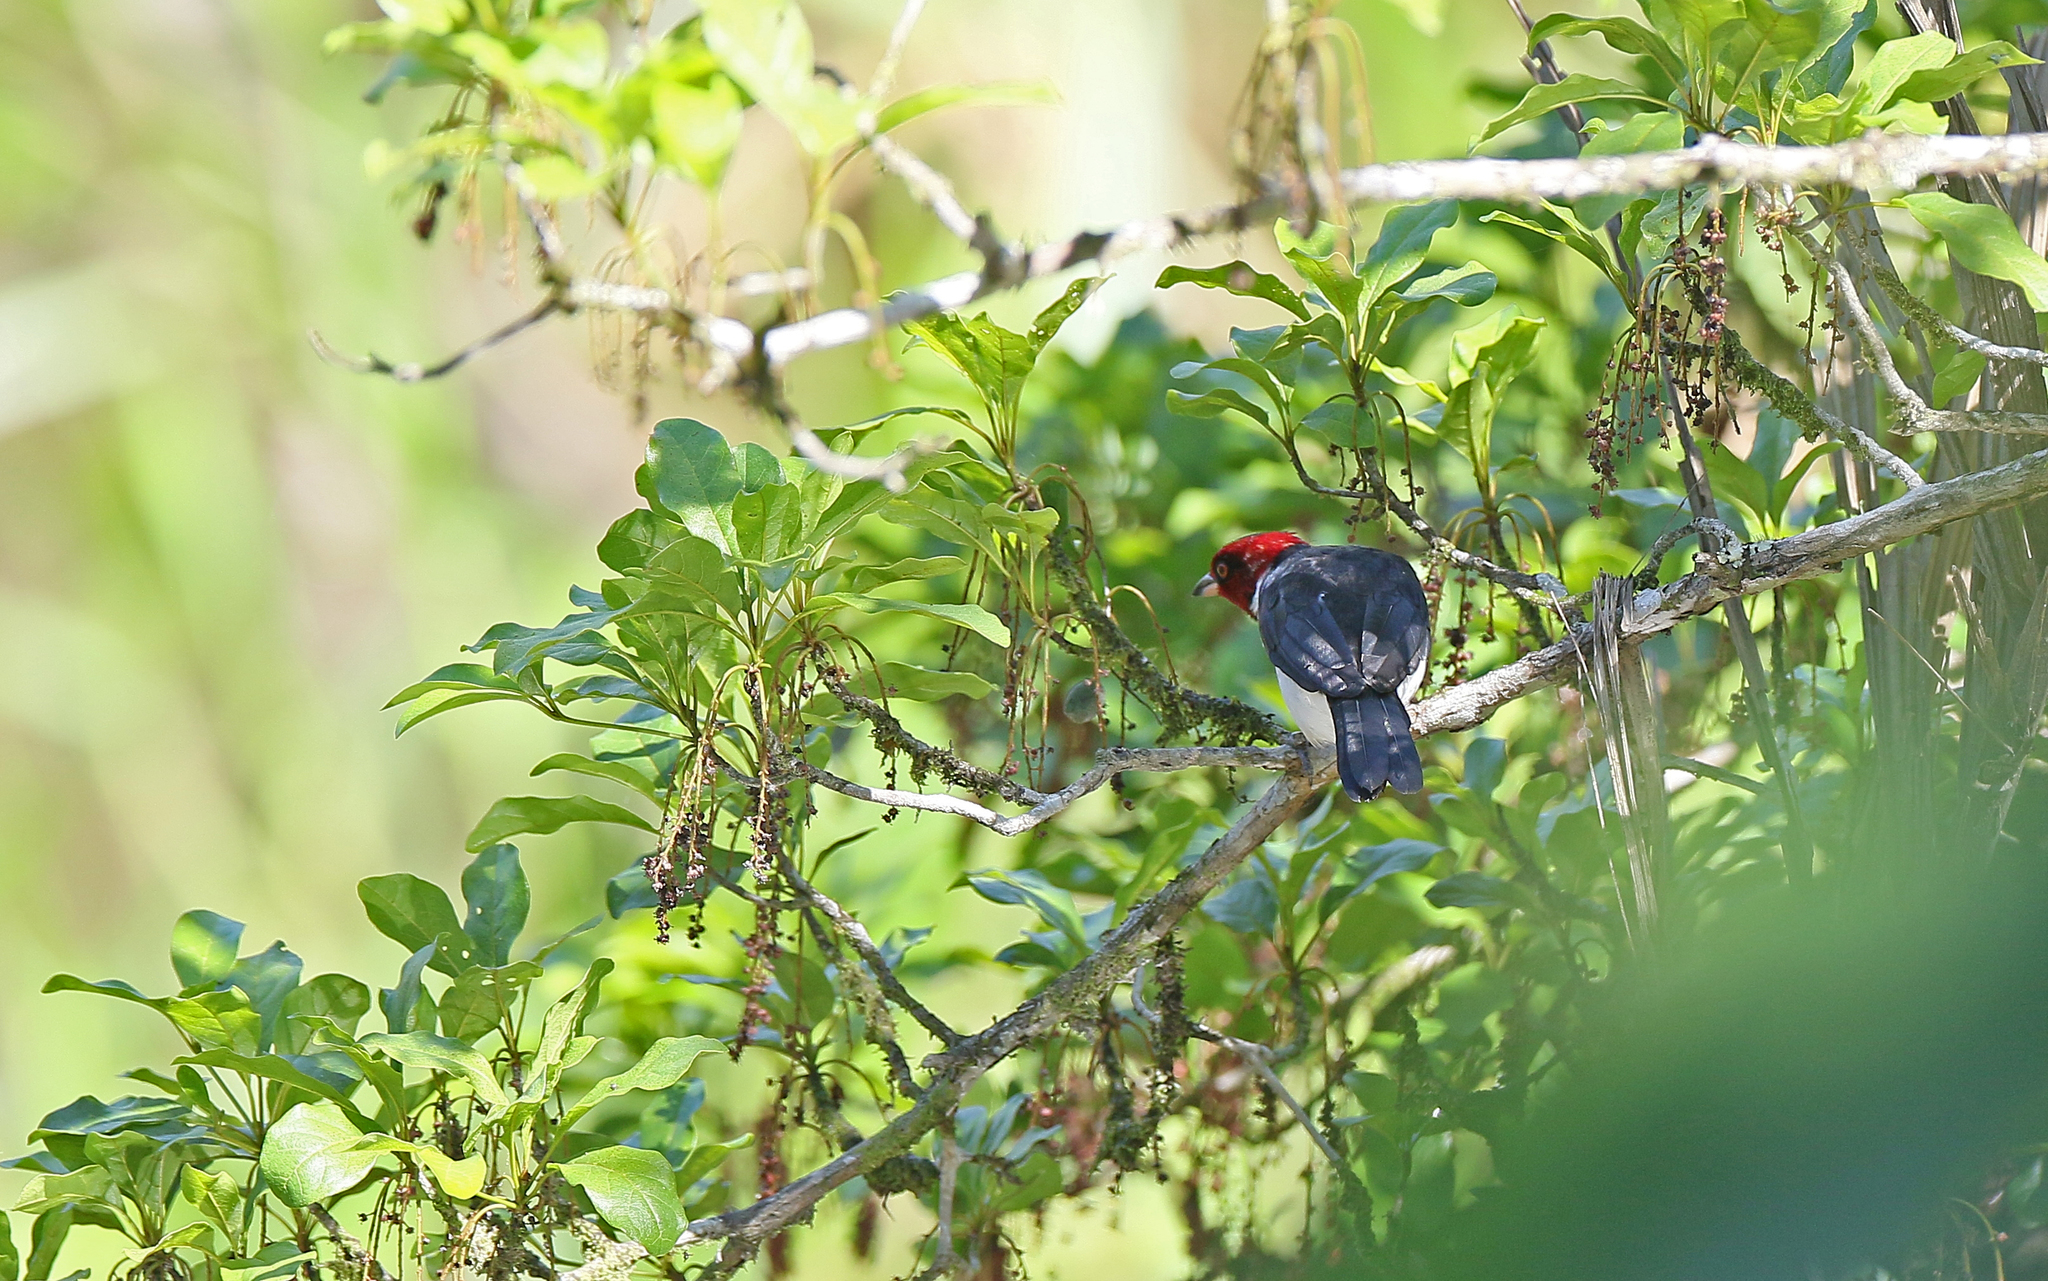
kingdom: Animalia
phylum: Chordata
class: Aves
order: Passeriformes
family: Thraupidae
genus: Paroaria
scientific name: Paroaria gularis
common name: Red-capped cardinal
